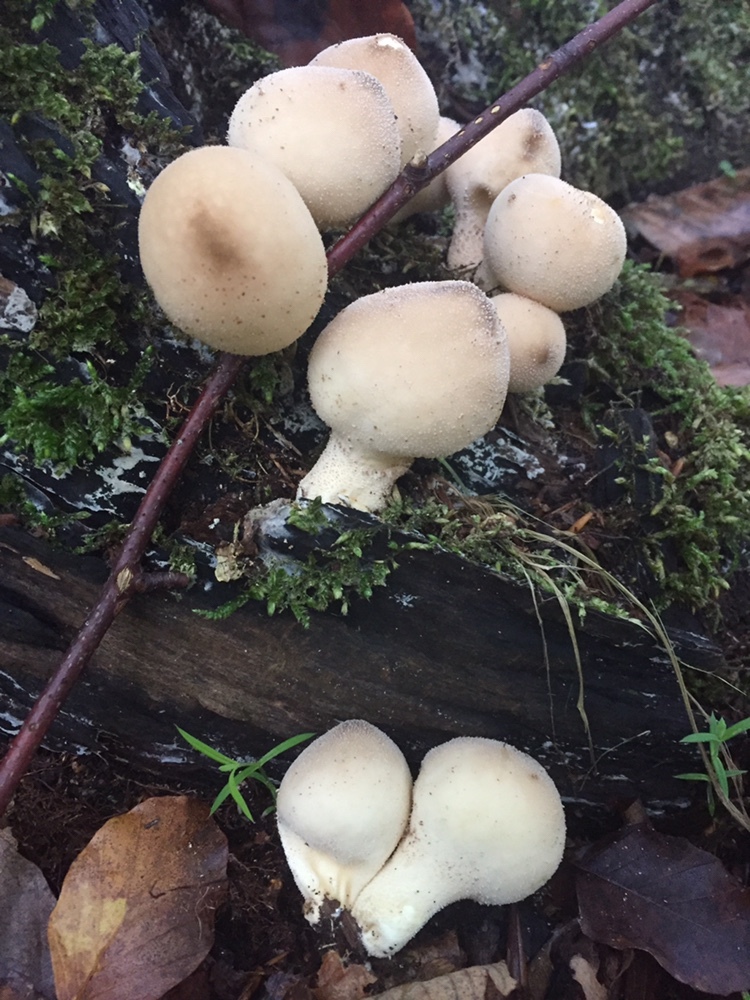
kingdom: Fungi
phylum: Basidiomycota
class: Agaricomycetes
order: Agaricales
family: Lycoperdaceae
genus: Apioperdon
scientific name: Apioperdon pyriforme
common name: Pear-shaped puffball
